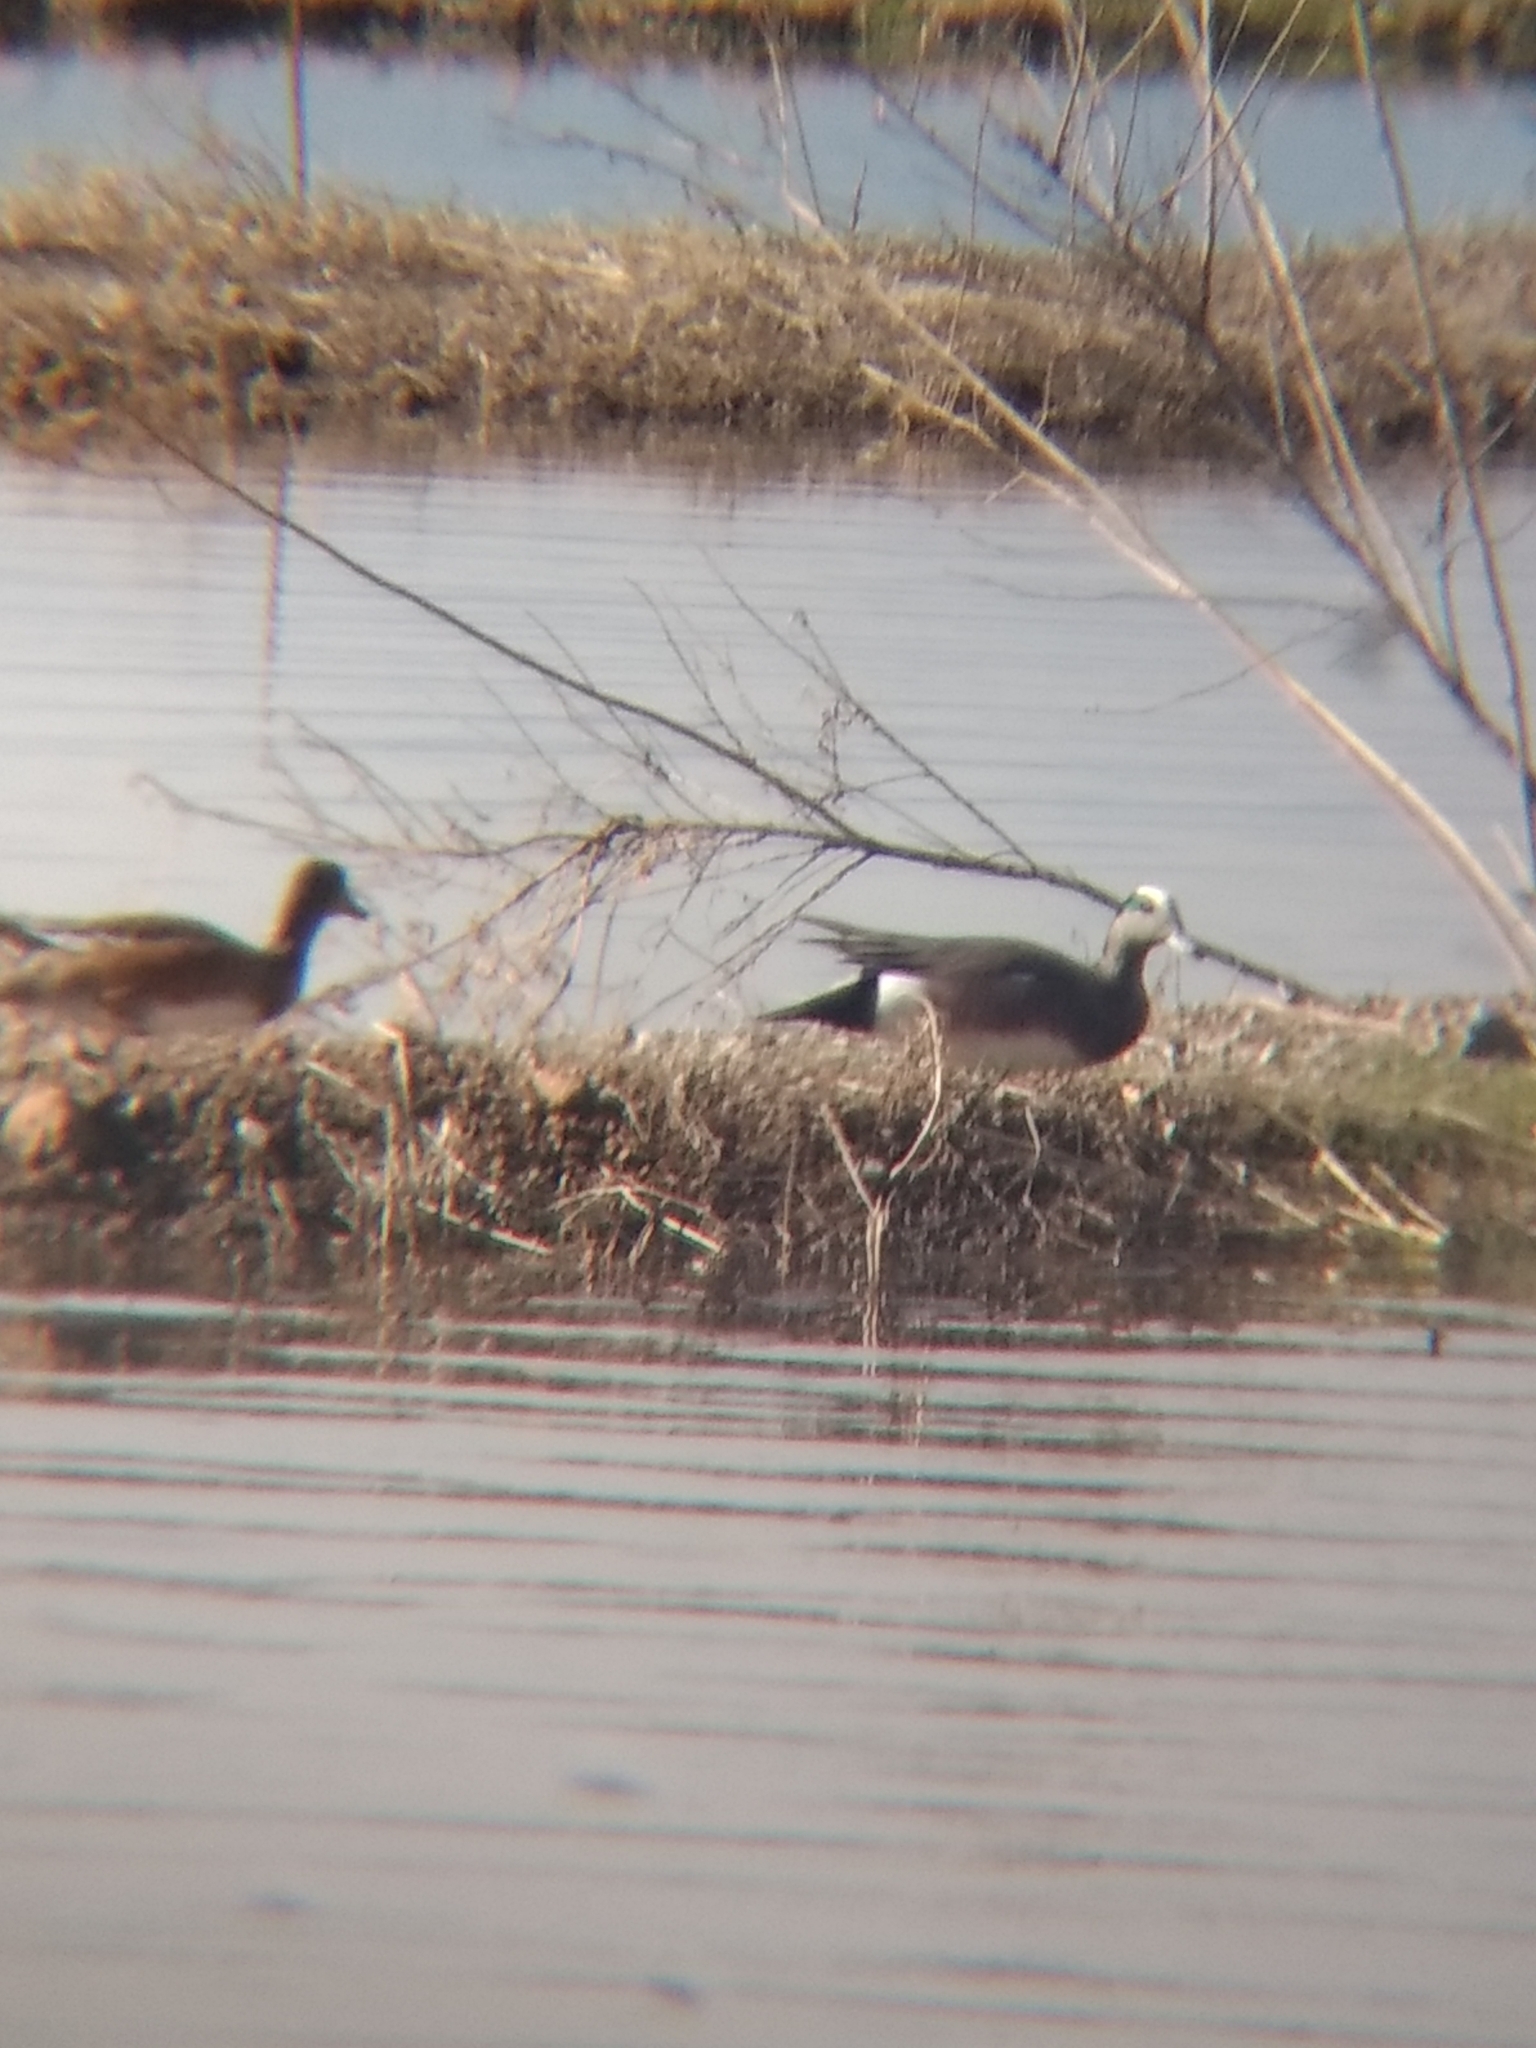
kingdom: Animalia
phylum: Chordata
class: Aves
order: Anseriformes
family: Anatidae
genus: Mareca
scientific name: Mareca americana
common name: American wigeon
